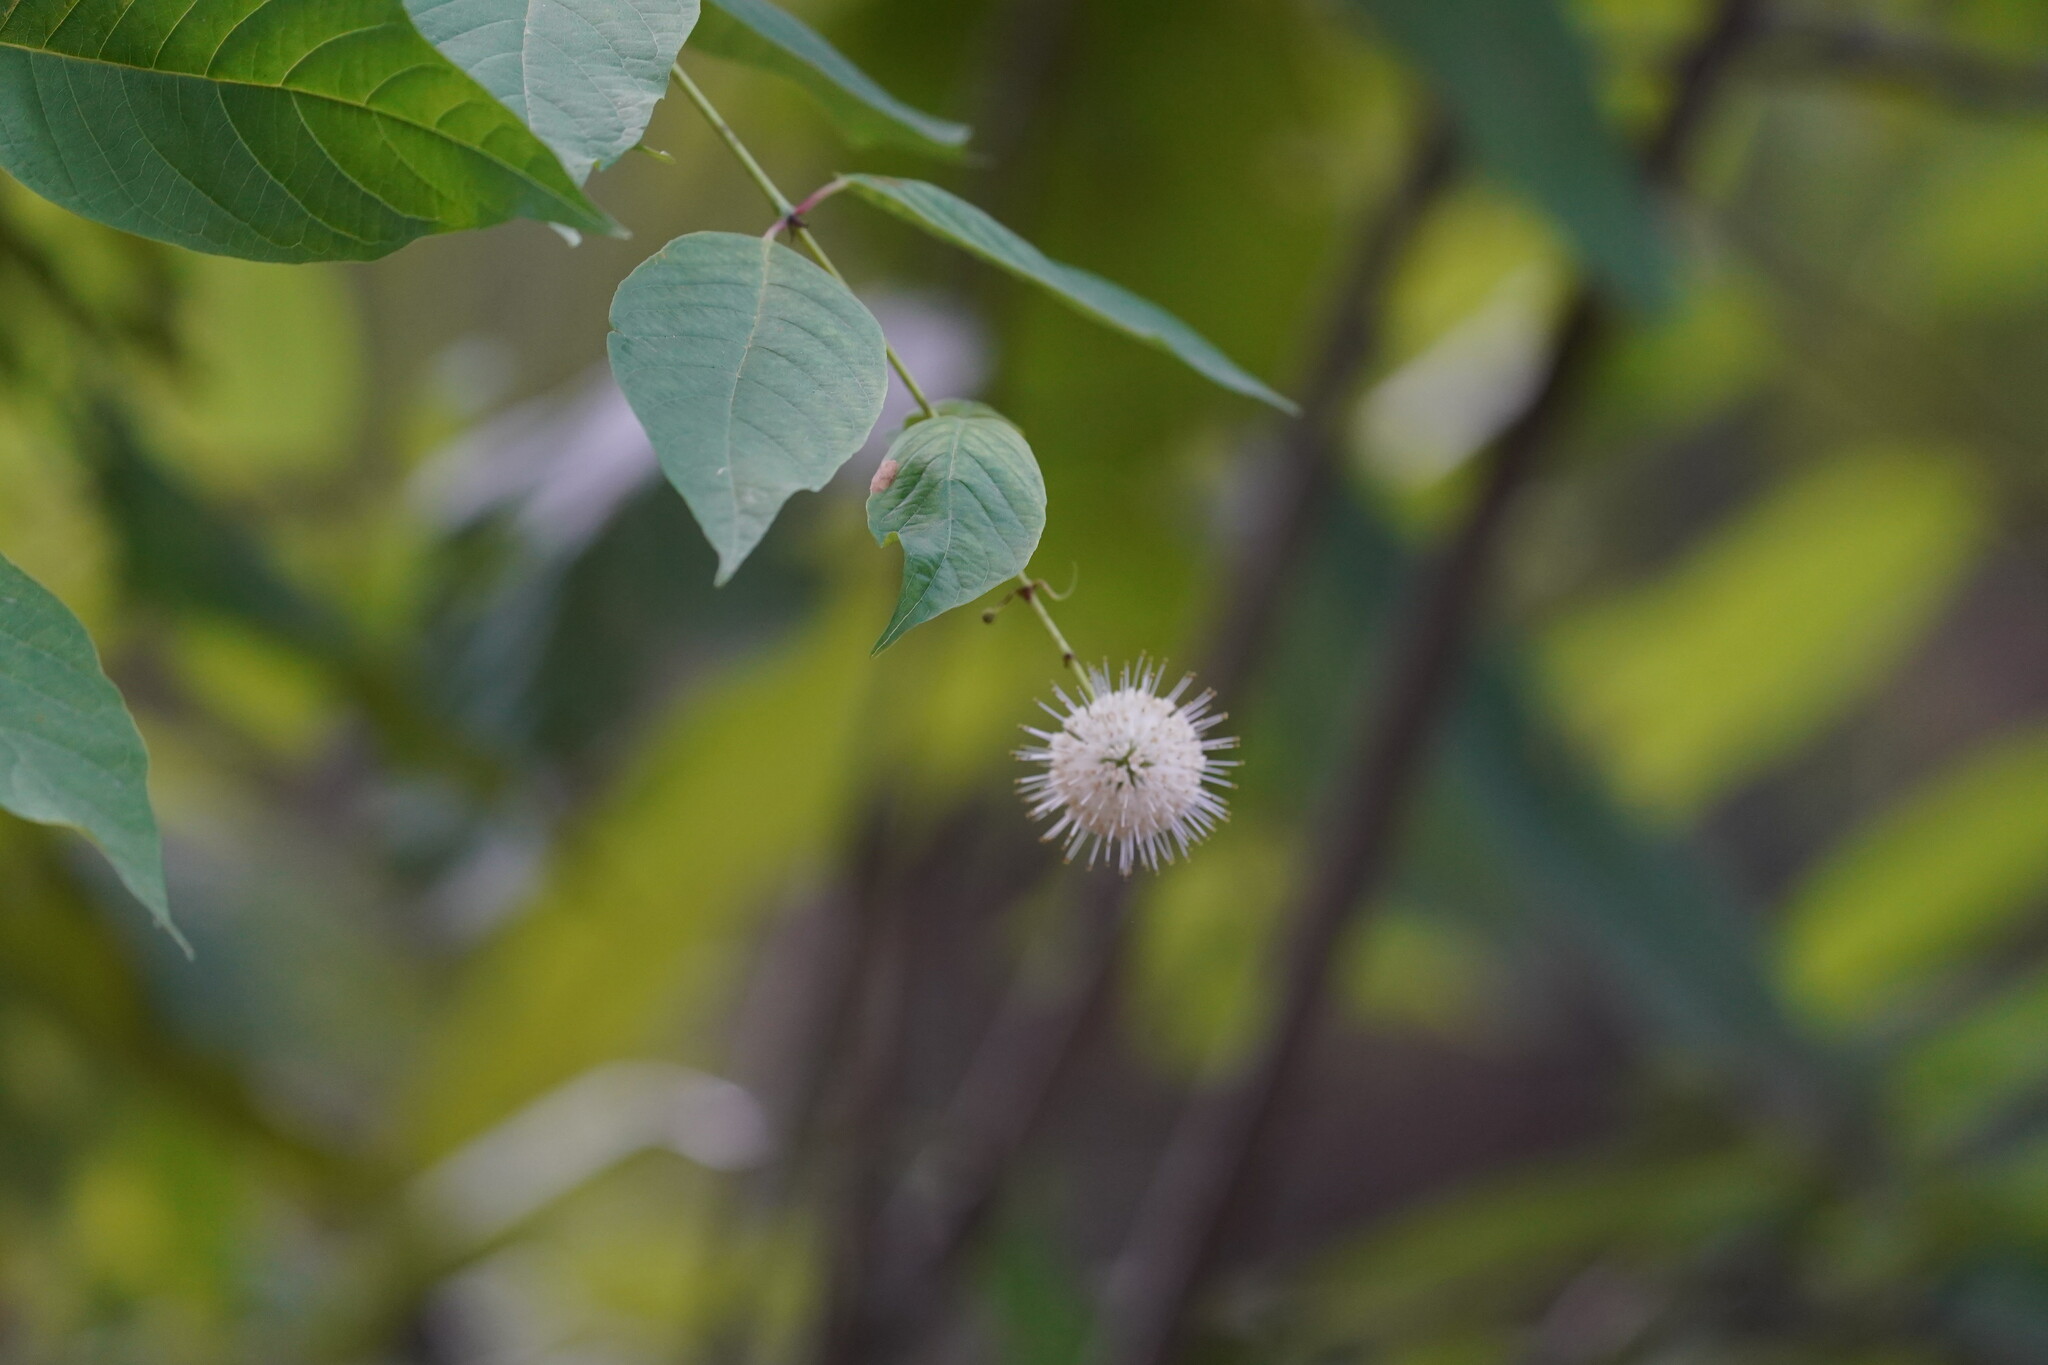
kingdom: Plantae
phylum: Tracheophyta
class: Magnoliopsida
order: Gentianales
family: Rubiaceae
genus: Cephalanthus
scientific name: Cephalanthus occidentalis
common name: Button-willow
